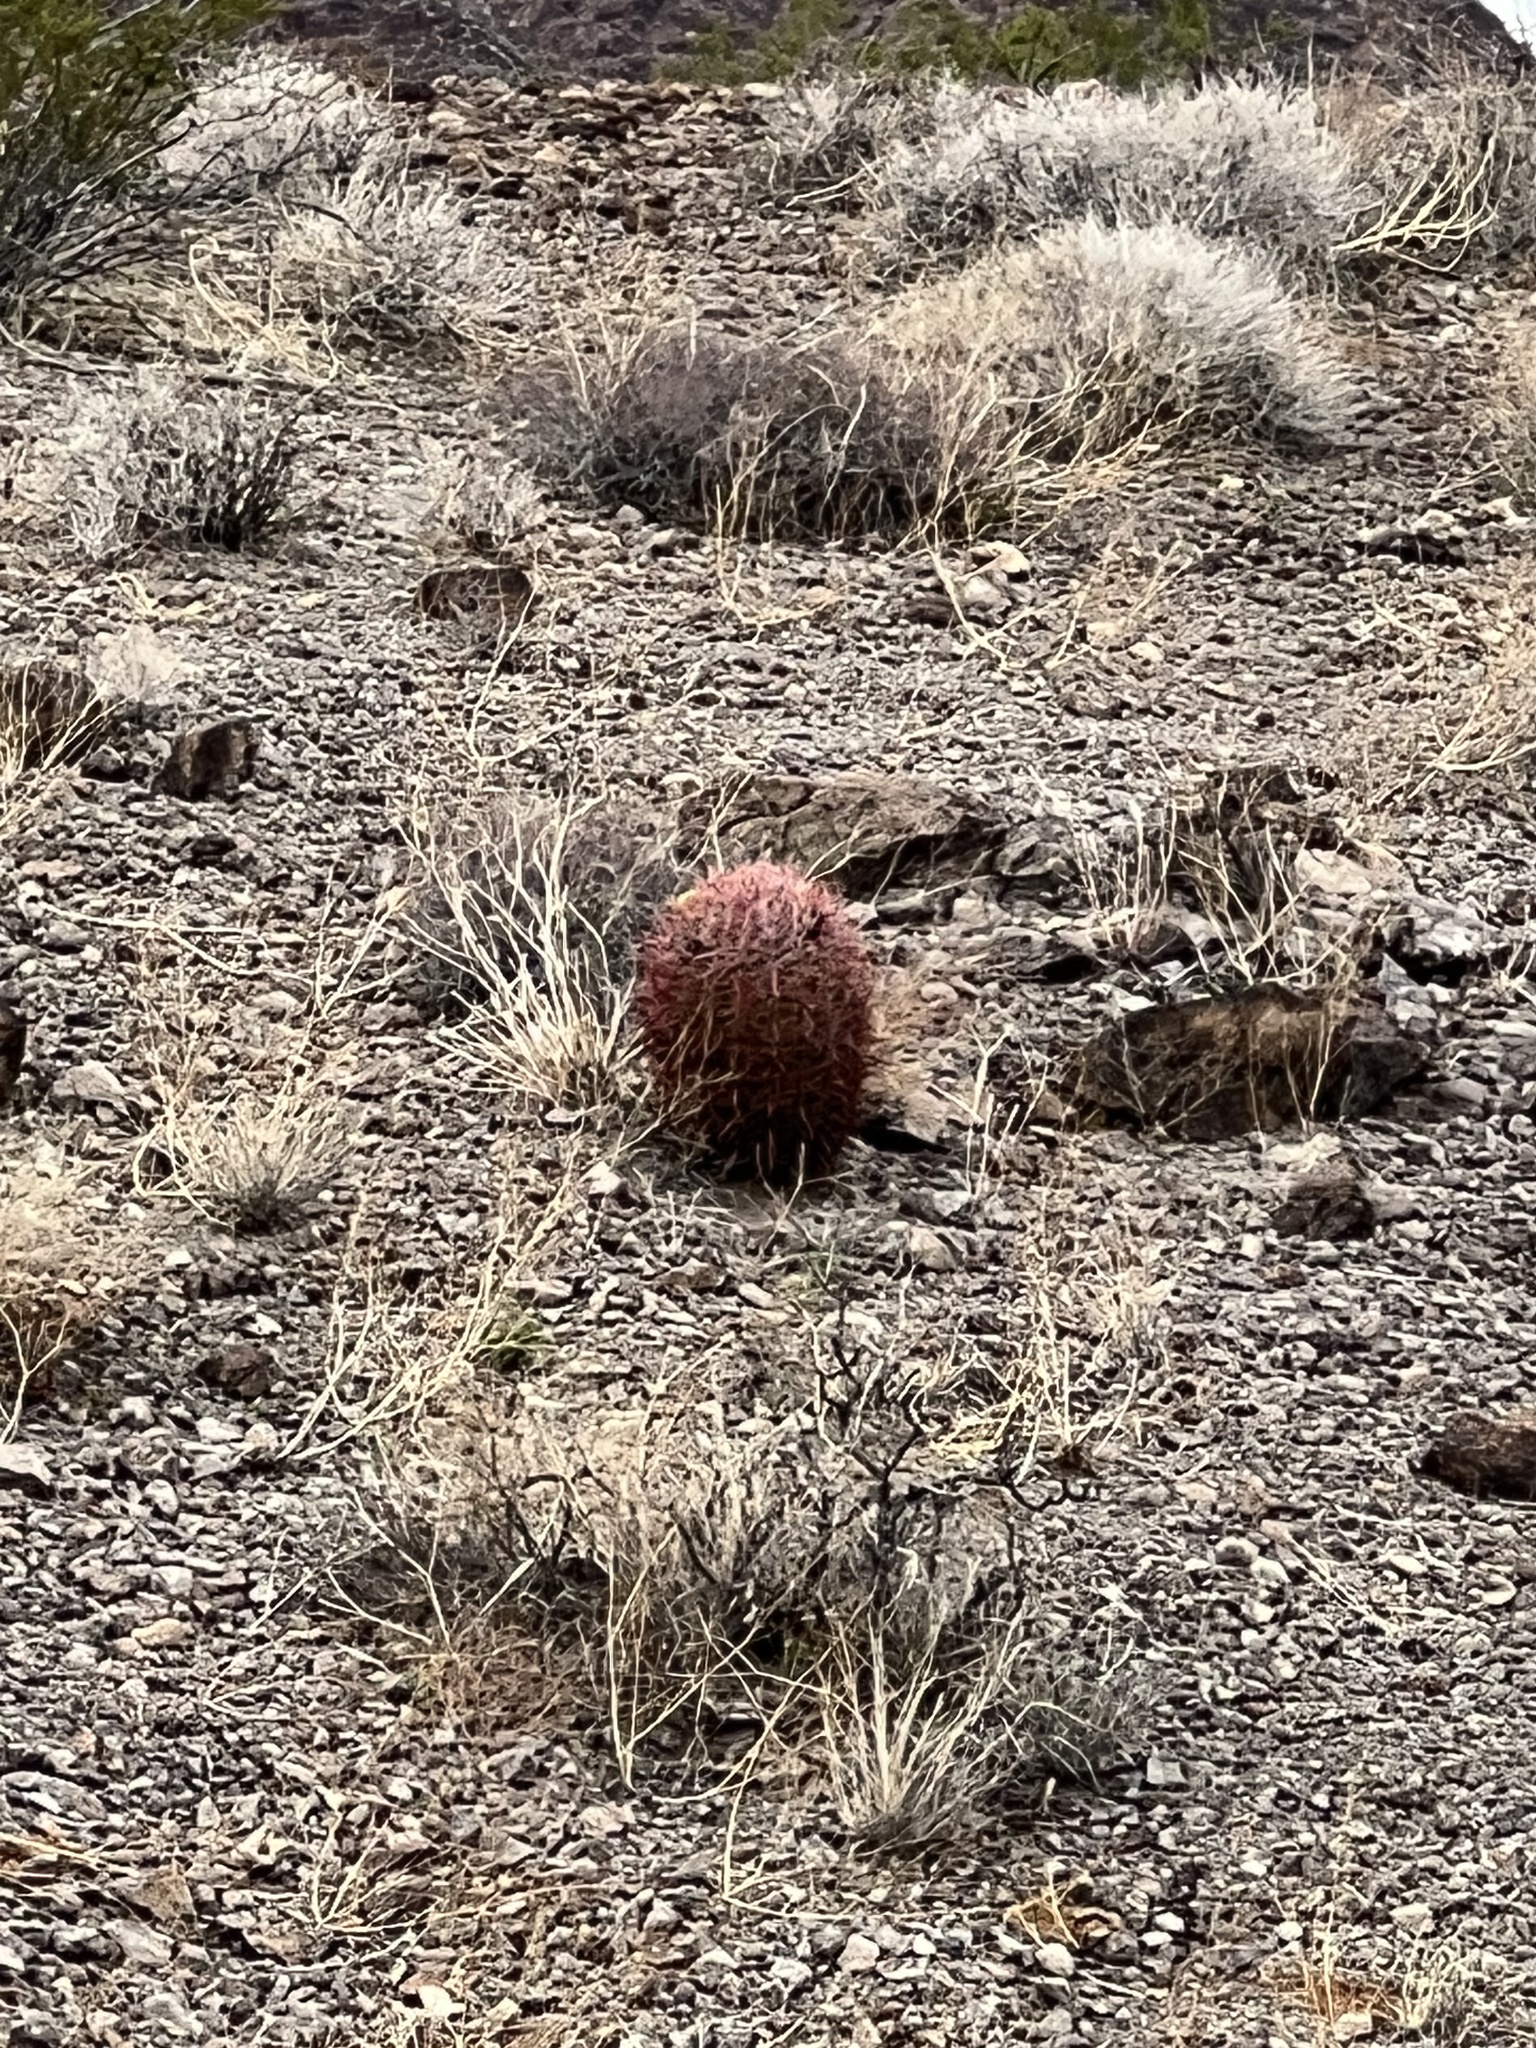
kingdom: Plantae
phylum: Tracheophyta
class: Magnoliopsida
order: Caryophyllales
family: Cactaceae
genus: Ferocactus
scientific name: Ferocactus cylindraceus
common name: California barrel cactus
